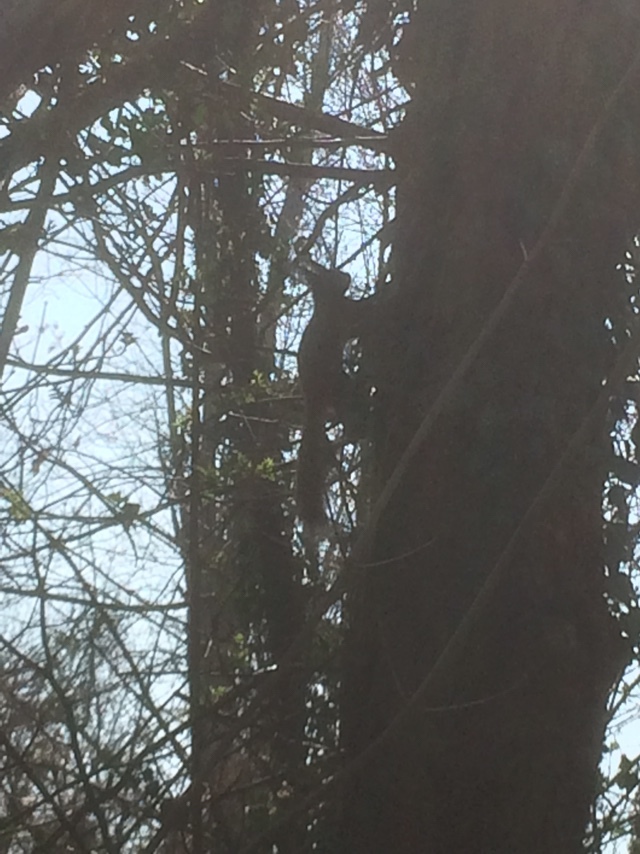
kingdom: Animalia
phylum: Chordata
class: Mammalia
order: Rodentia
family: Sciuridae
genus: Sciurus
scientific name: Sciurus vulgaris
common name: Eurasian red squirrel
